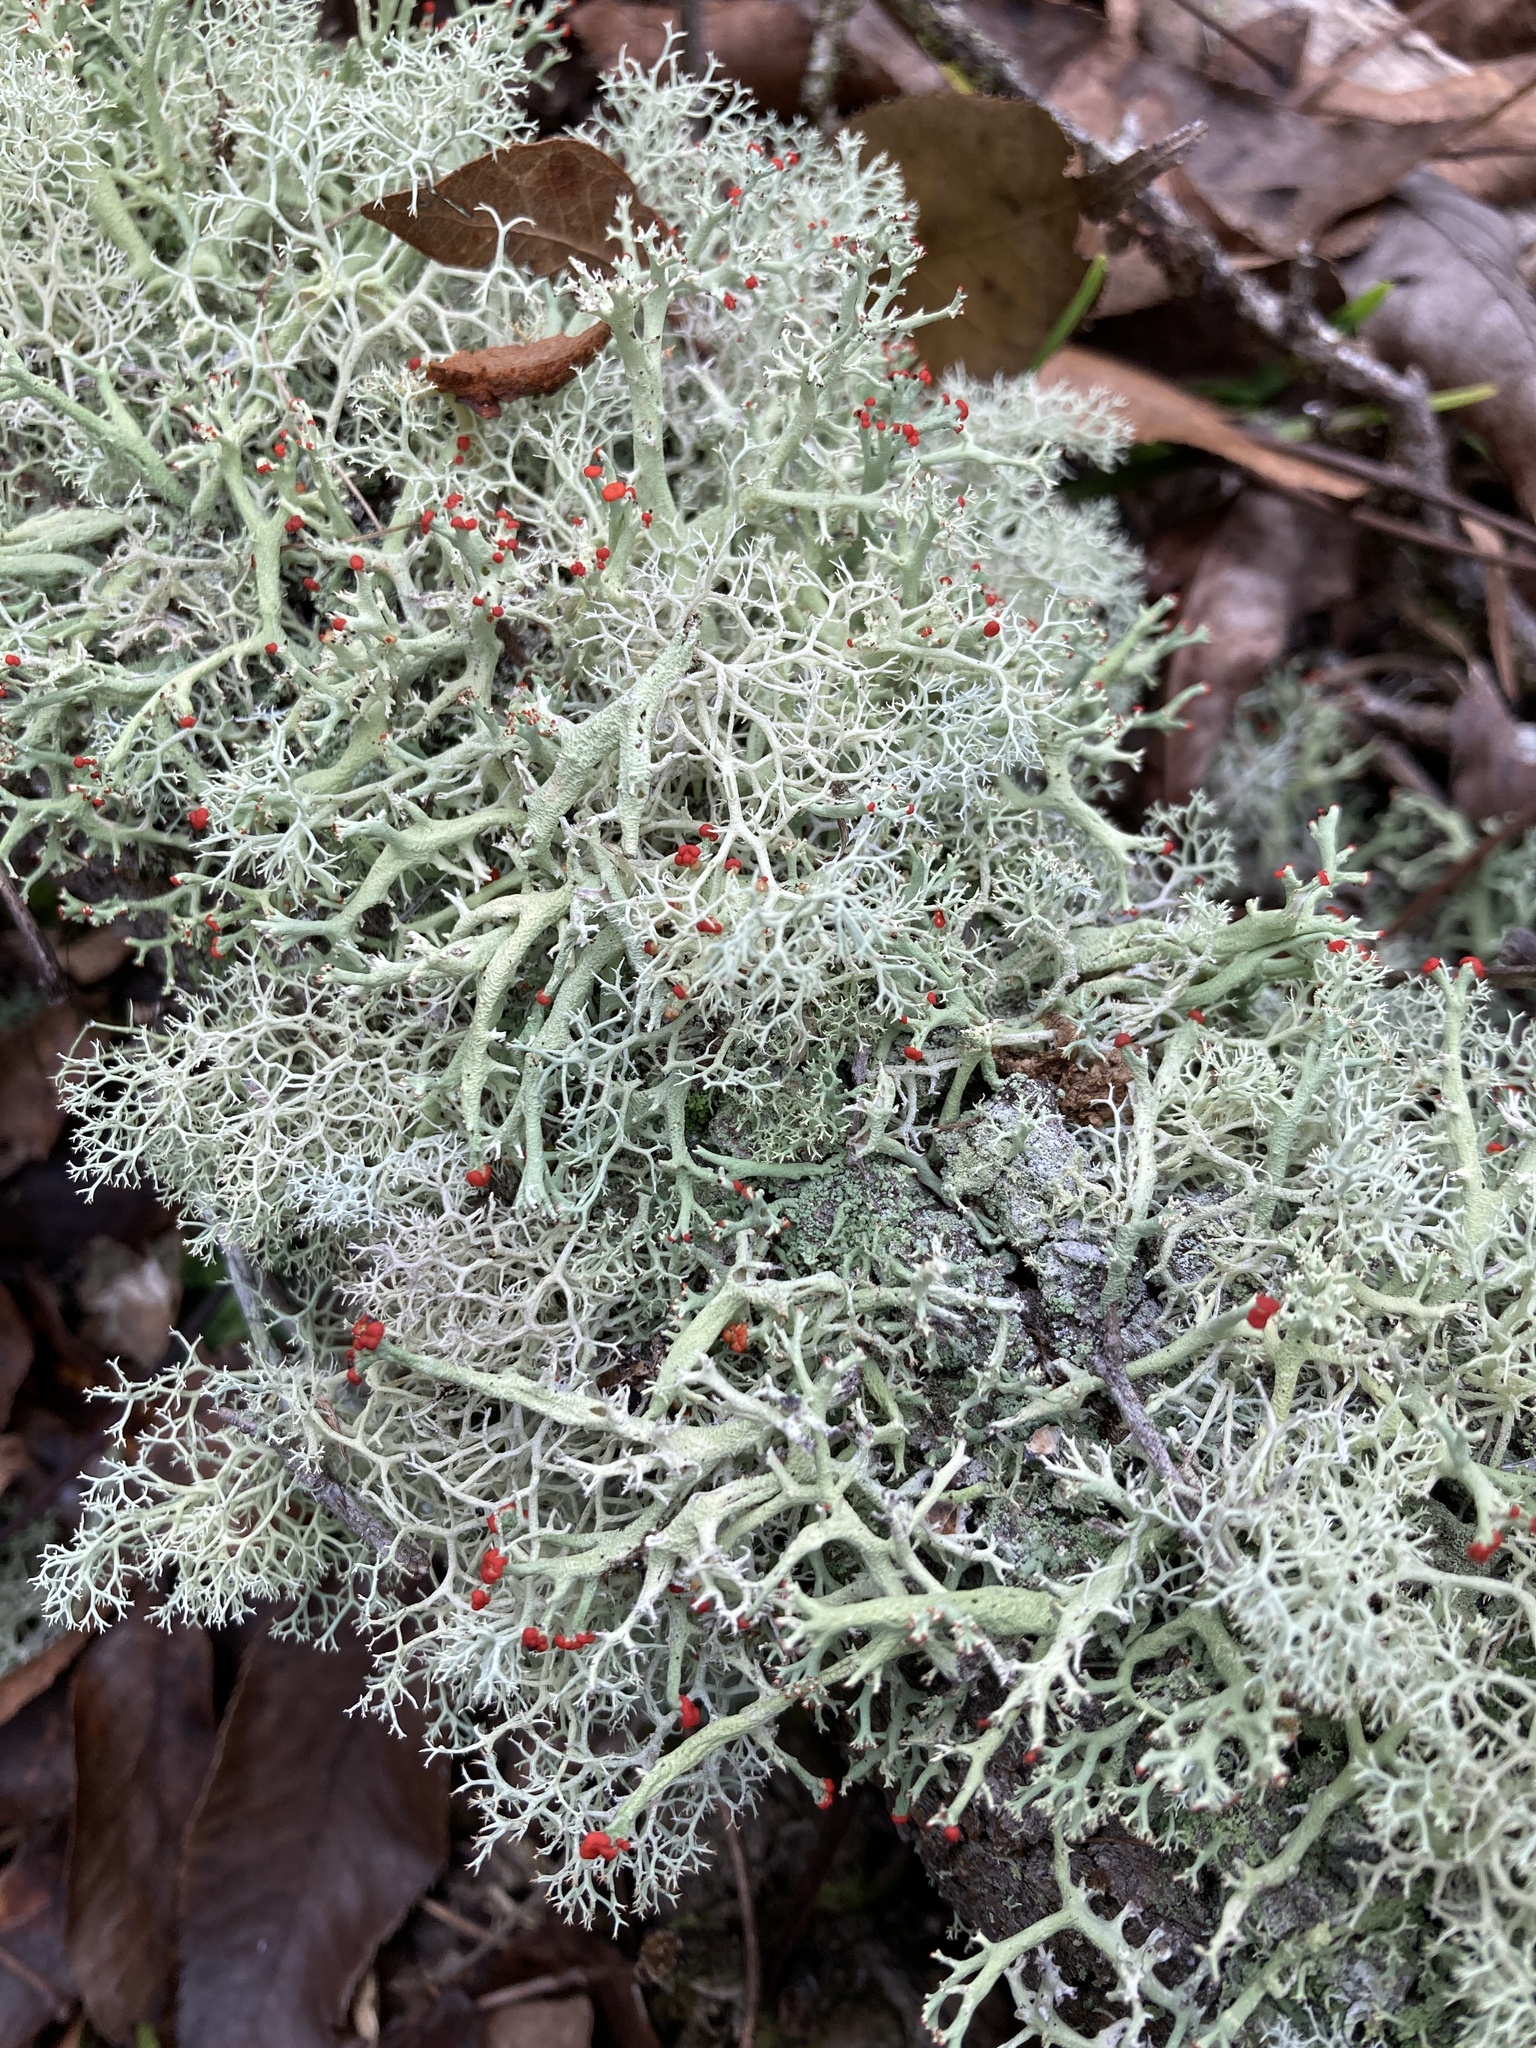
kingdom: Fungi
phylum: Ascomycota
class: Lecanoromycetes
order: Lecanorales
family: Cladoniaceae
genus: Cladonia
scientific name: Cladonia leporina
